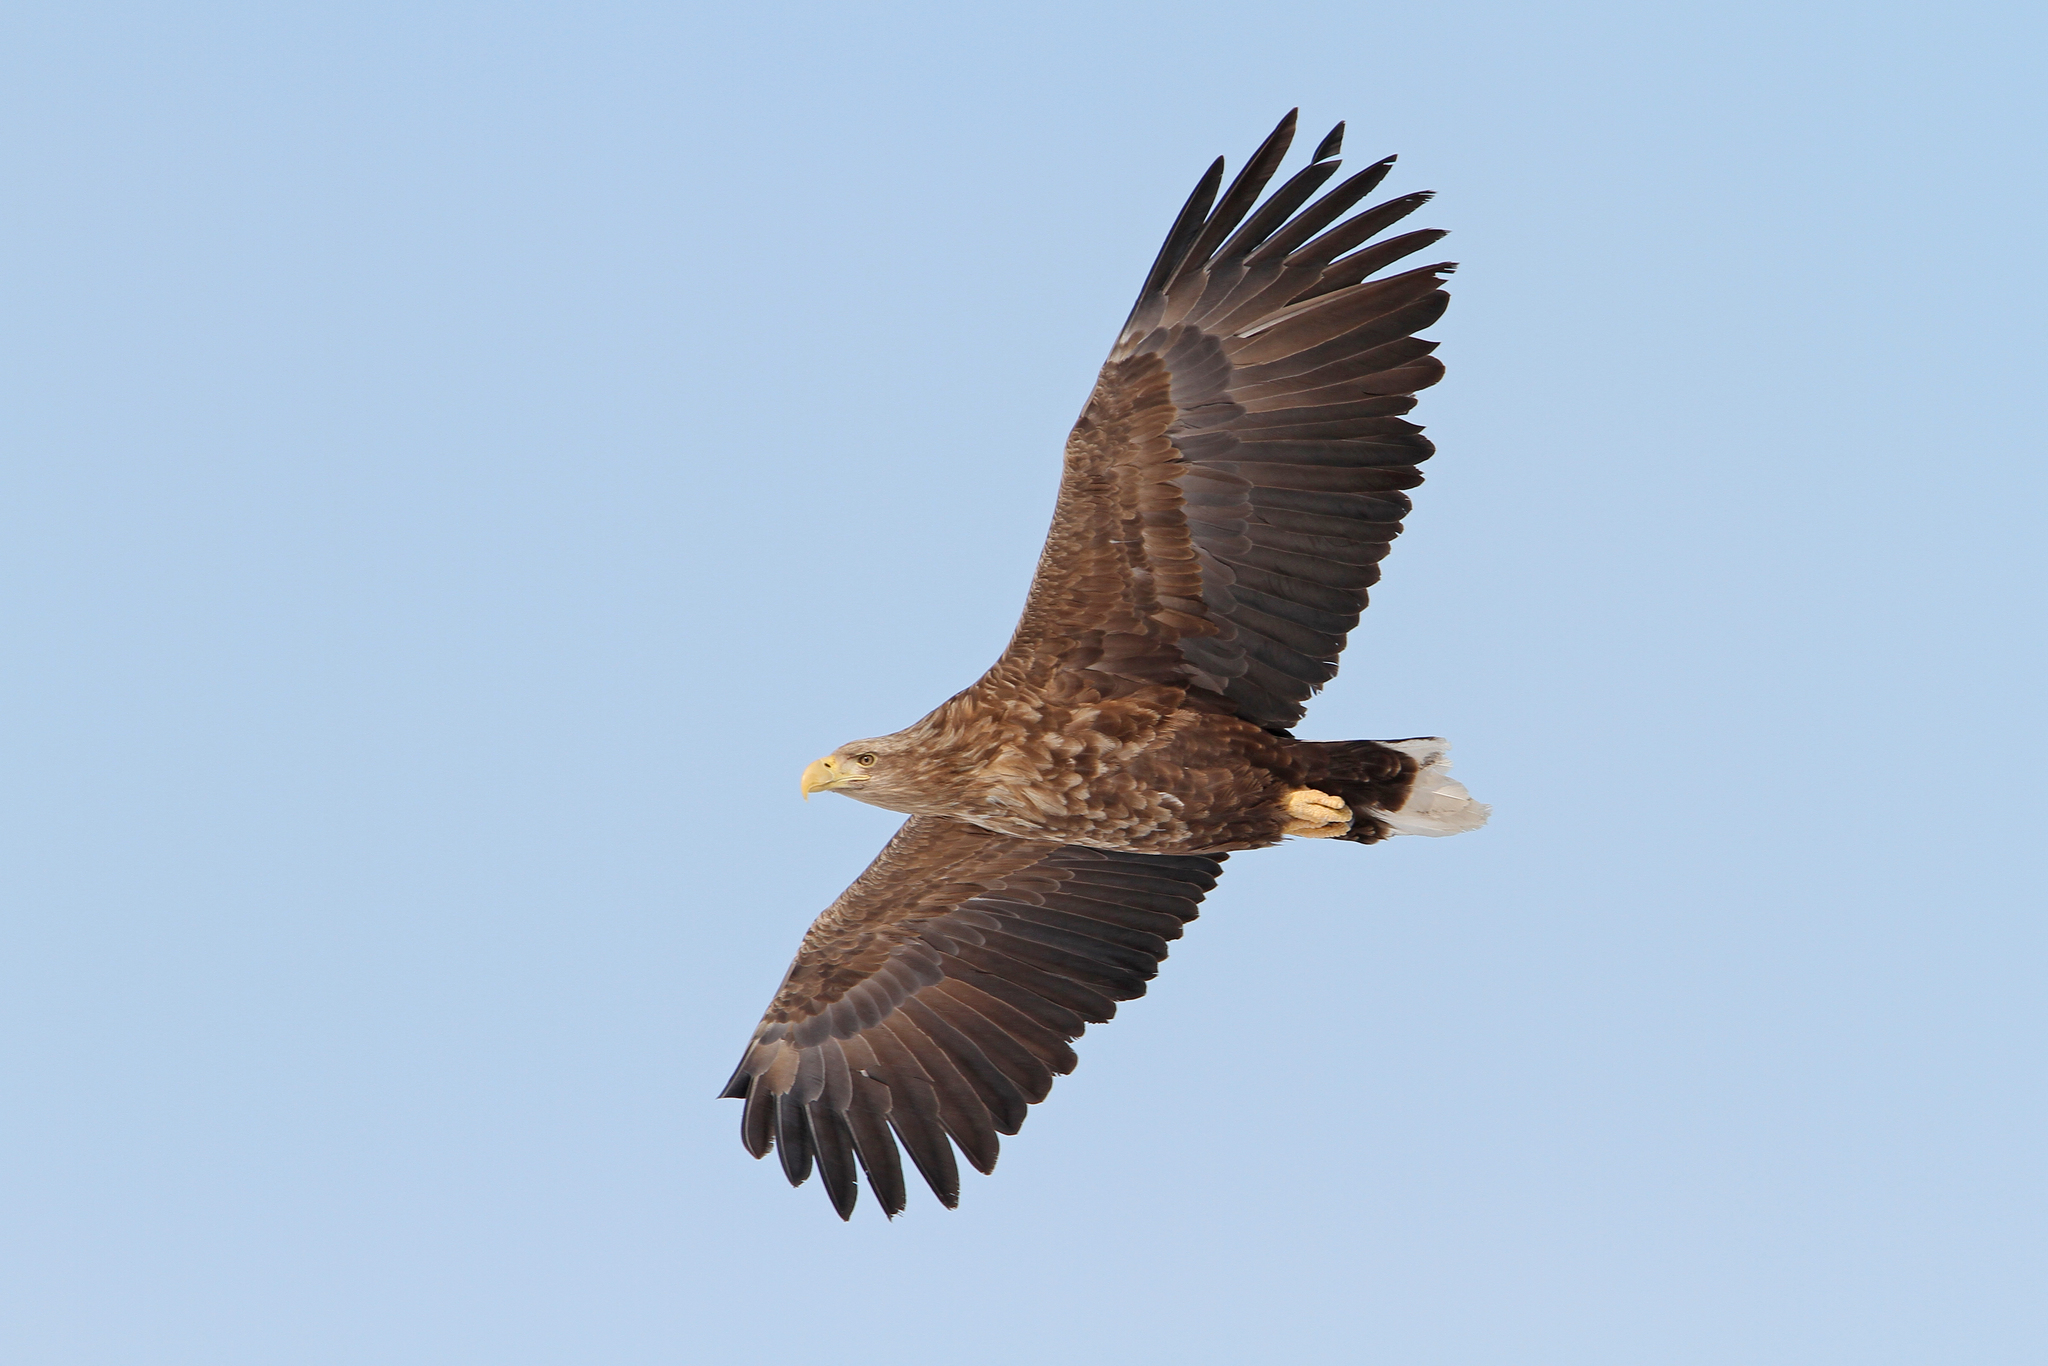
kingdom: Animalia
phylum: Chordata
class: Aves
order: Accipitriformes
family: Accipitridae
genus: Haliaeetus
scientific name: Haliaeetus albicilla
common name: White-tailed eagle
